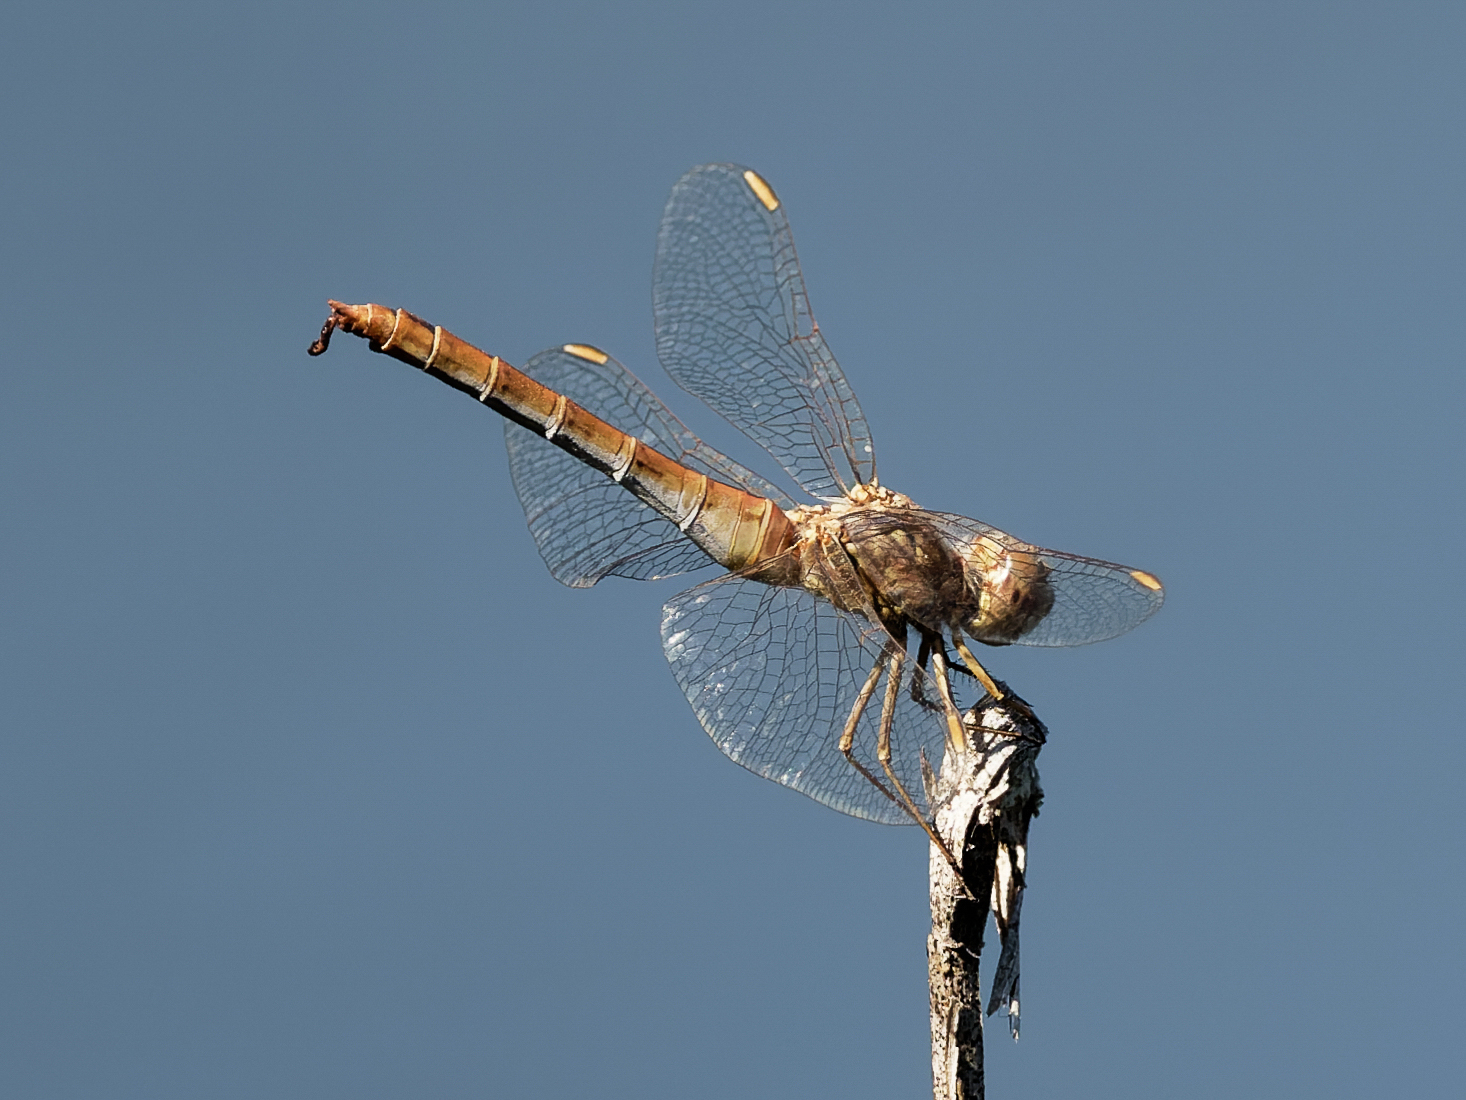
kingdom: Animalia
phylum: Arthropoda
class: Insecta
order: Odonata
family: Libellulidae
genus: Sympetrum
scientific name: Sympetrum meridionale
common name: Southern darter
